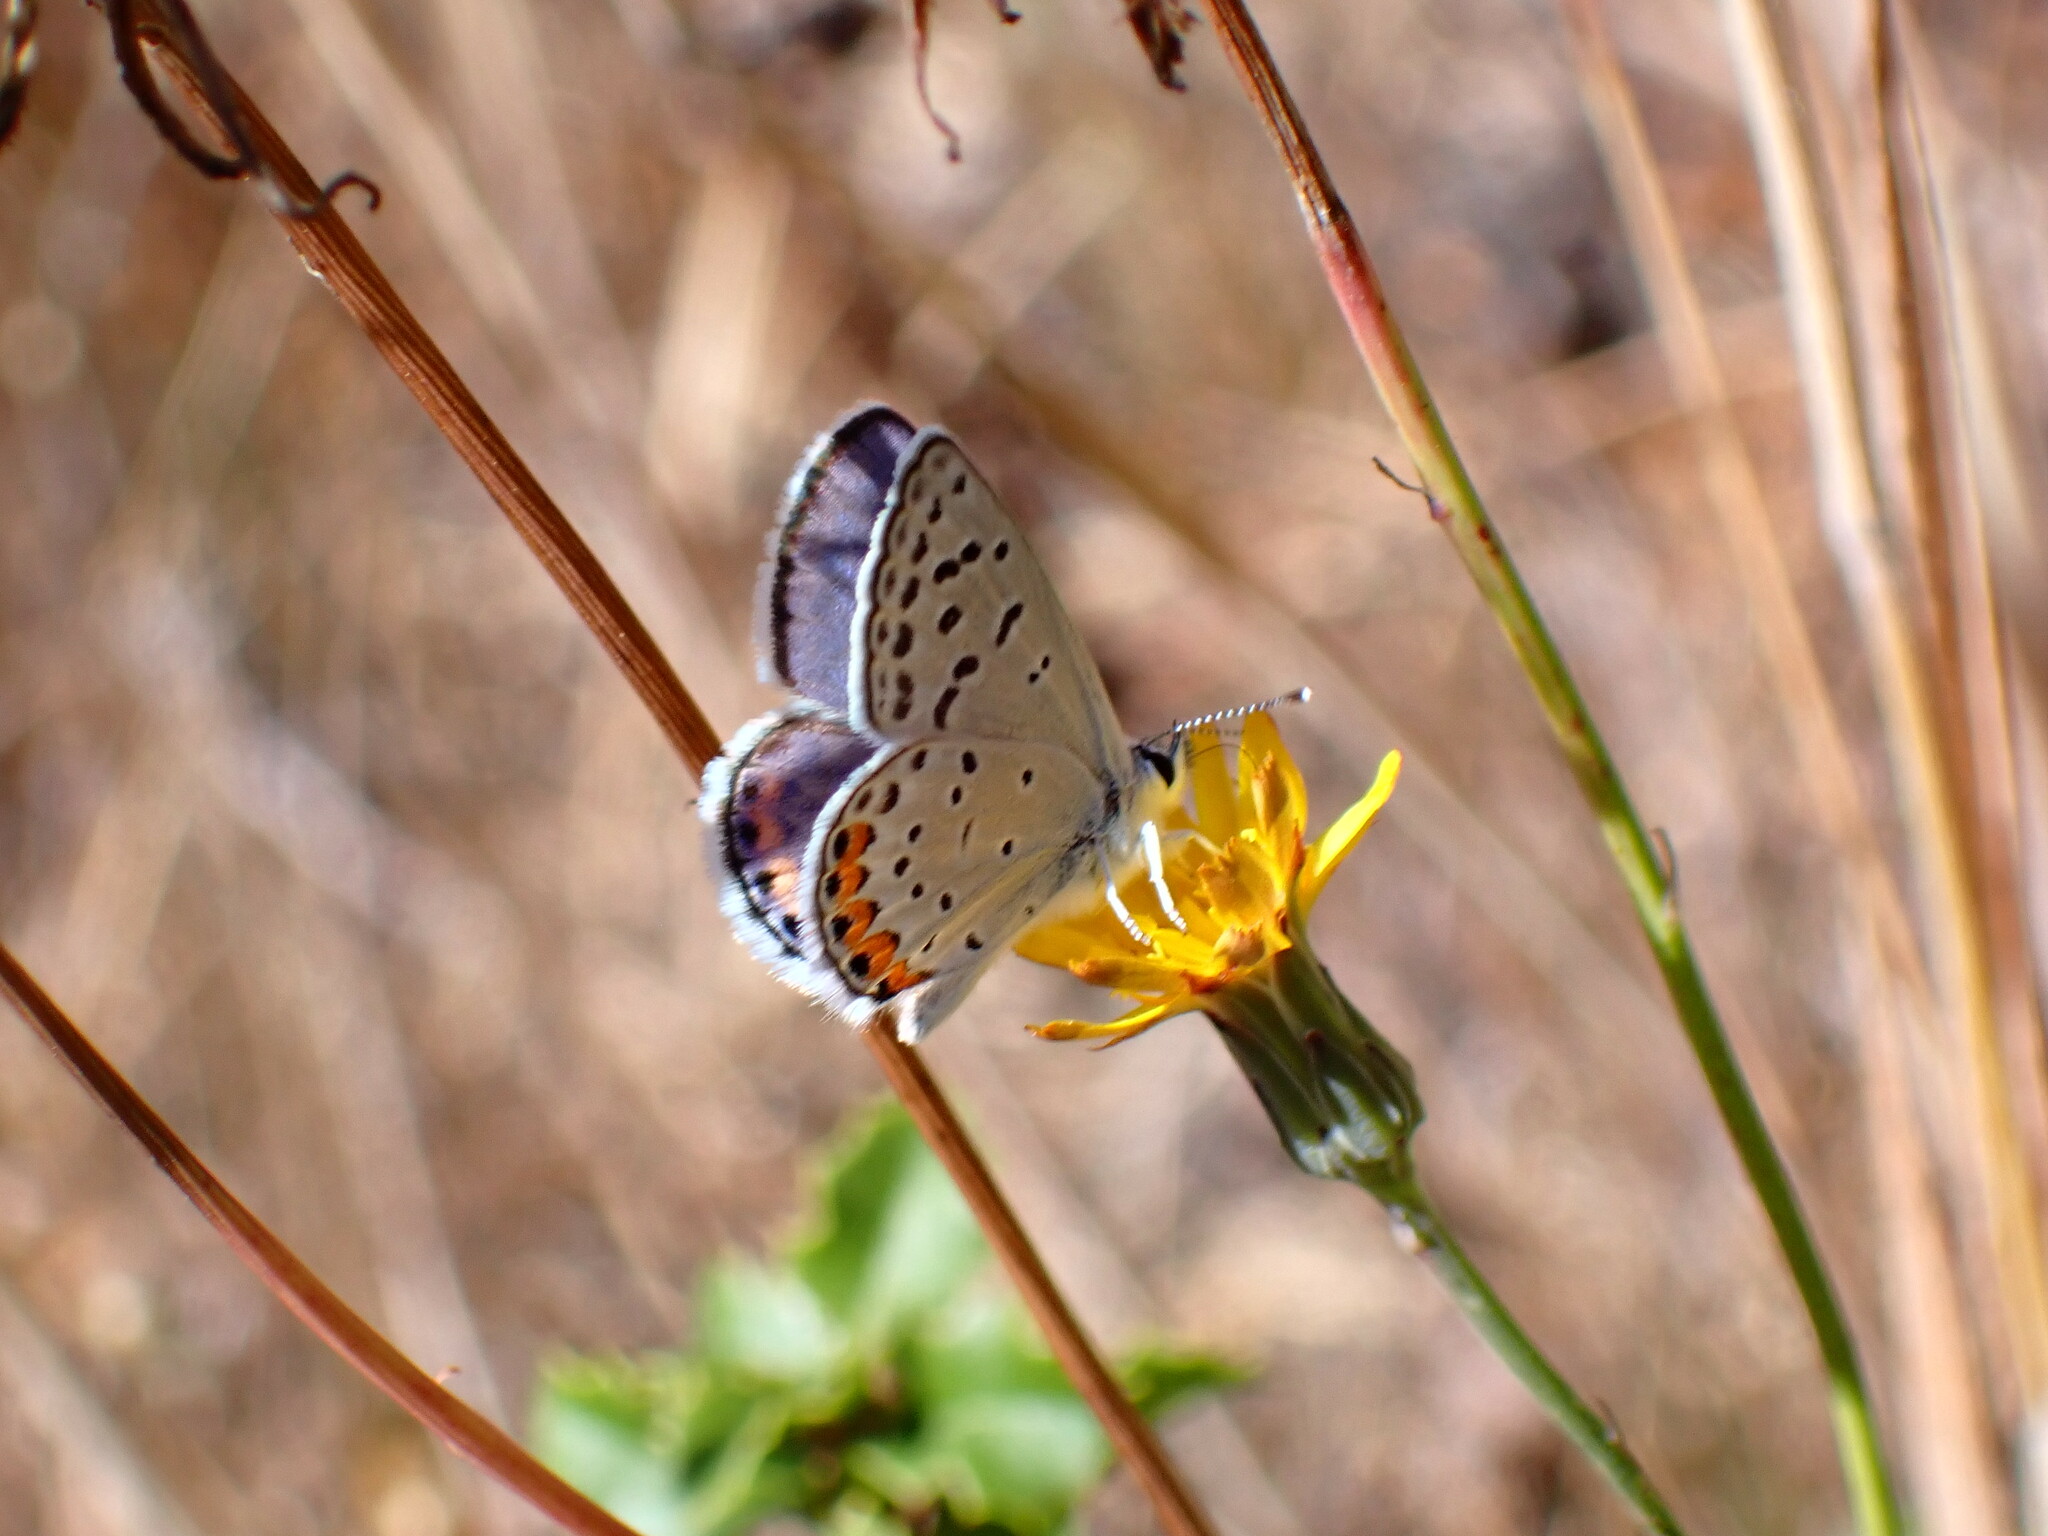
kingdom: Animalia
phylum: Arthropoda
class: Insecta
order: Lepidoptera
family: Lycaenidae
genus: Icaricia
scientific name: Icaricia acmon
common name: Acmon blue
